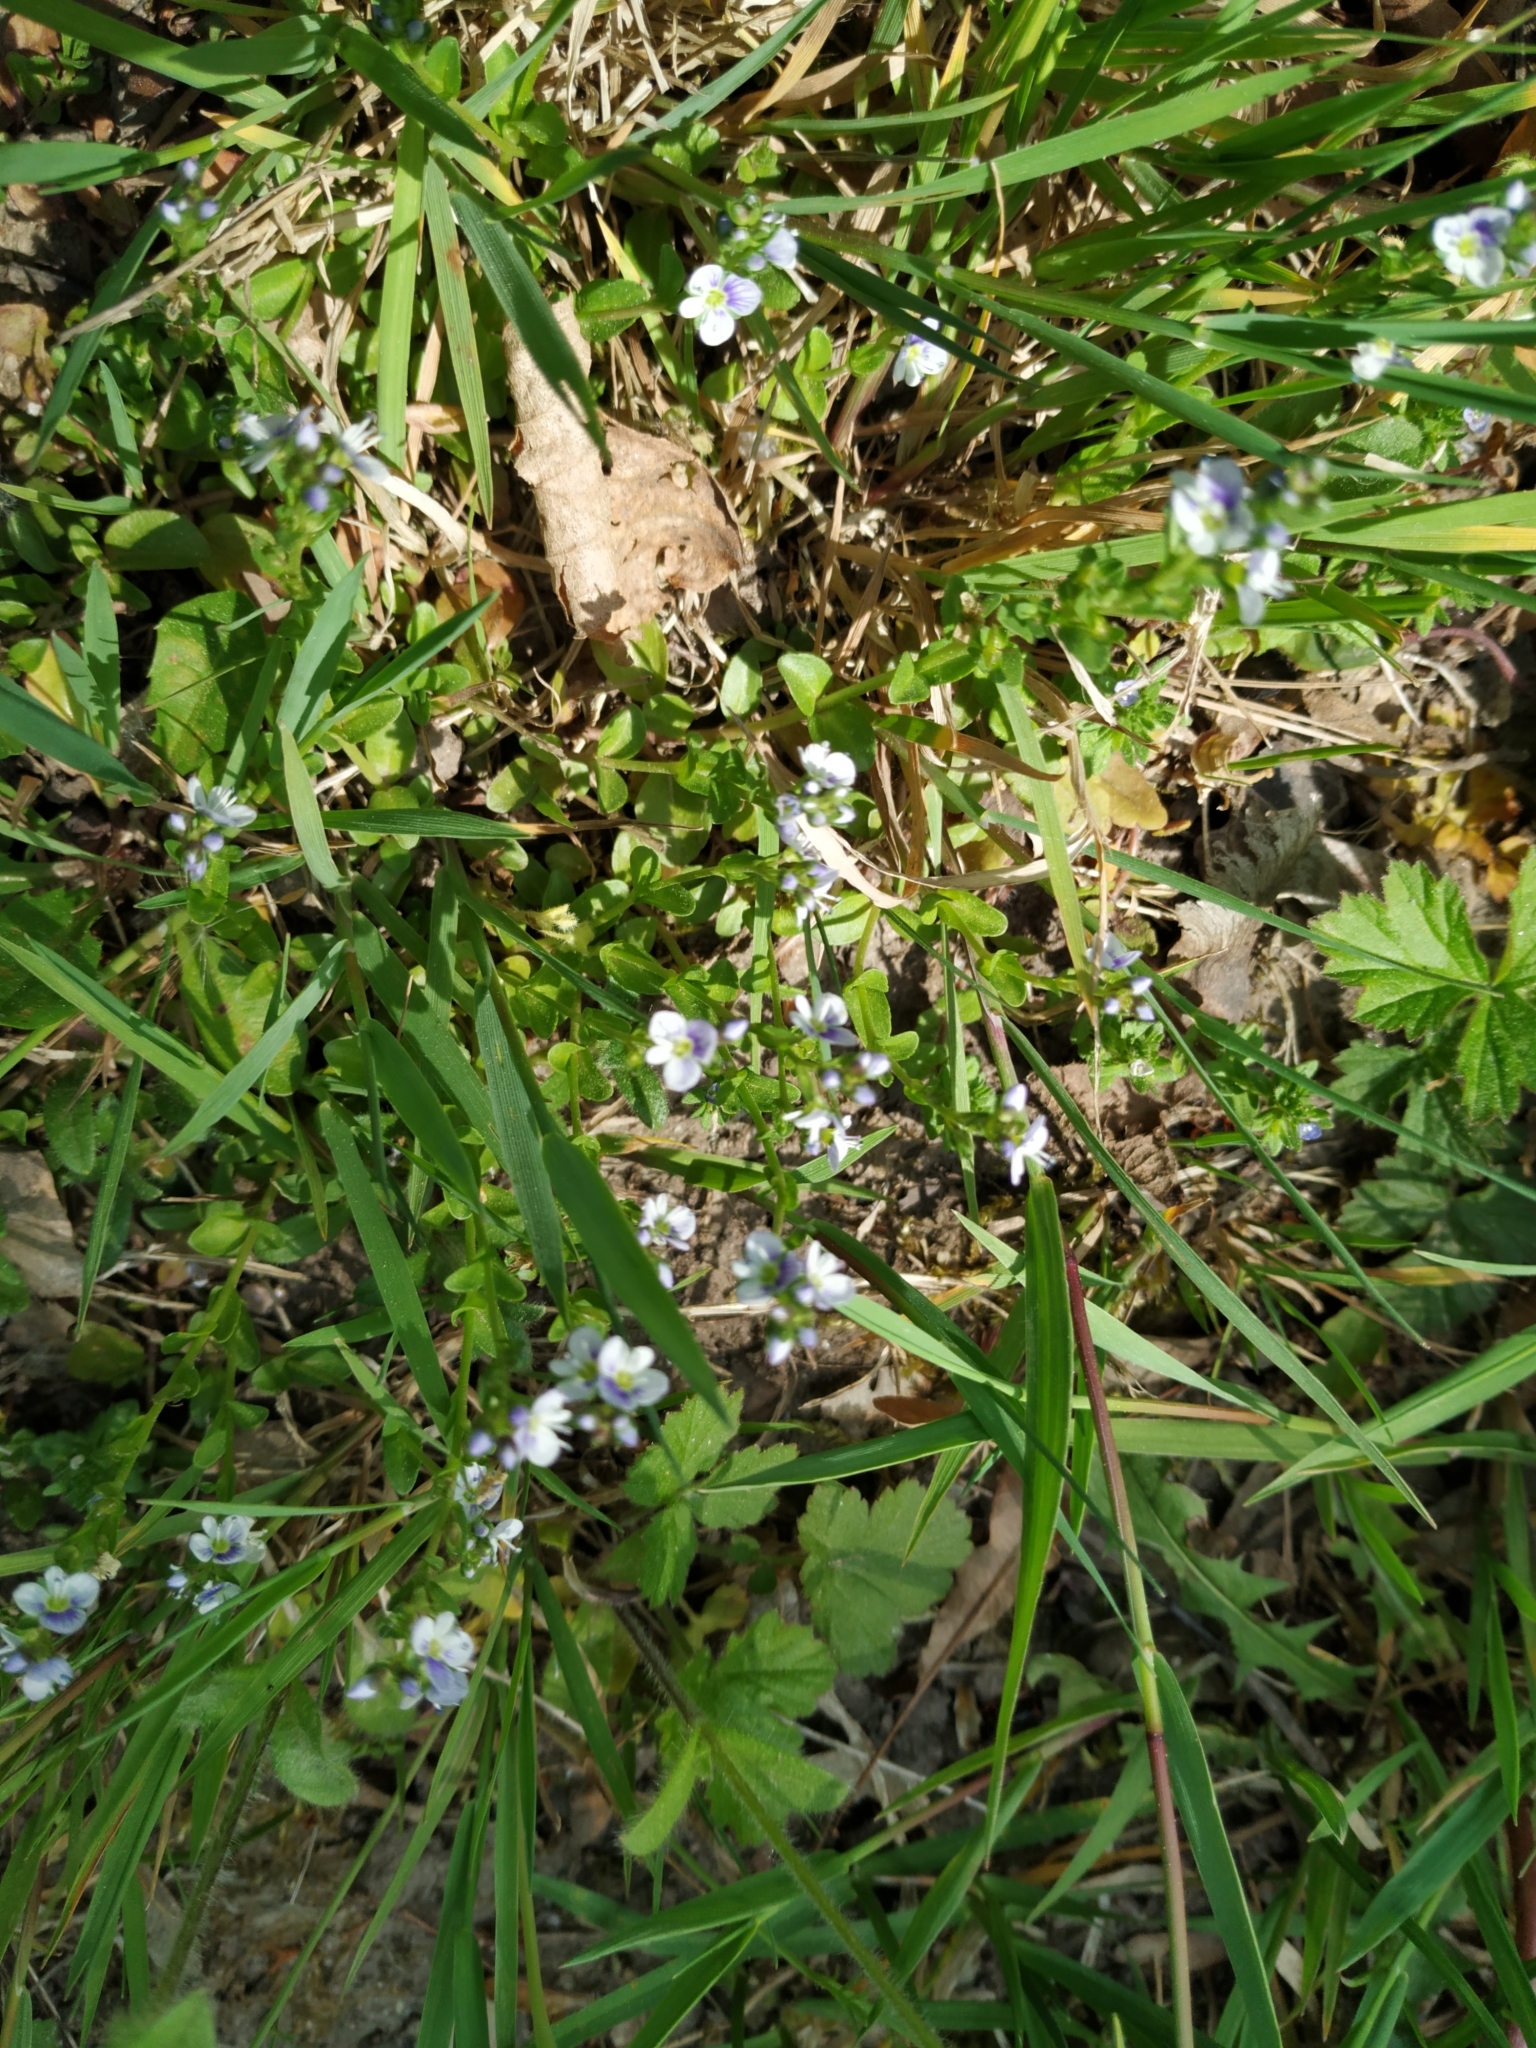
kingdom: Plantae
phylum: Tracheophyta
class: Magnoliopsida
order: Lamiales
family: Plantaginaceae
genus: Veronica
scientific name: Veronica serpyllifolia
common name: Thyme-leaved speedwell
